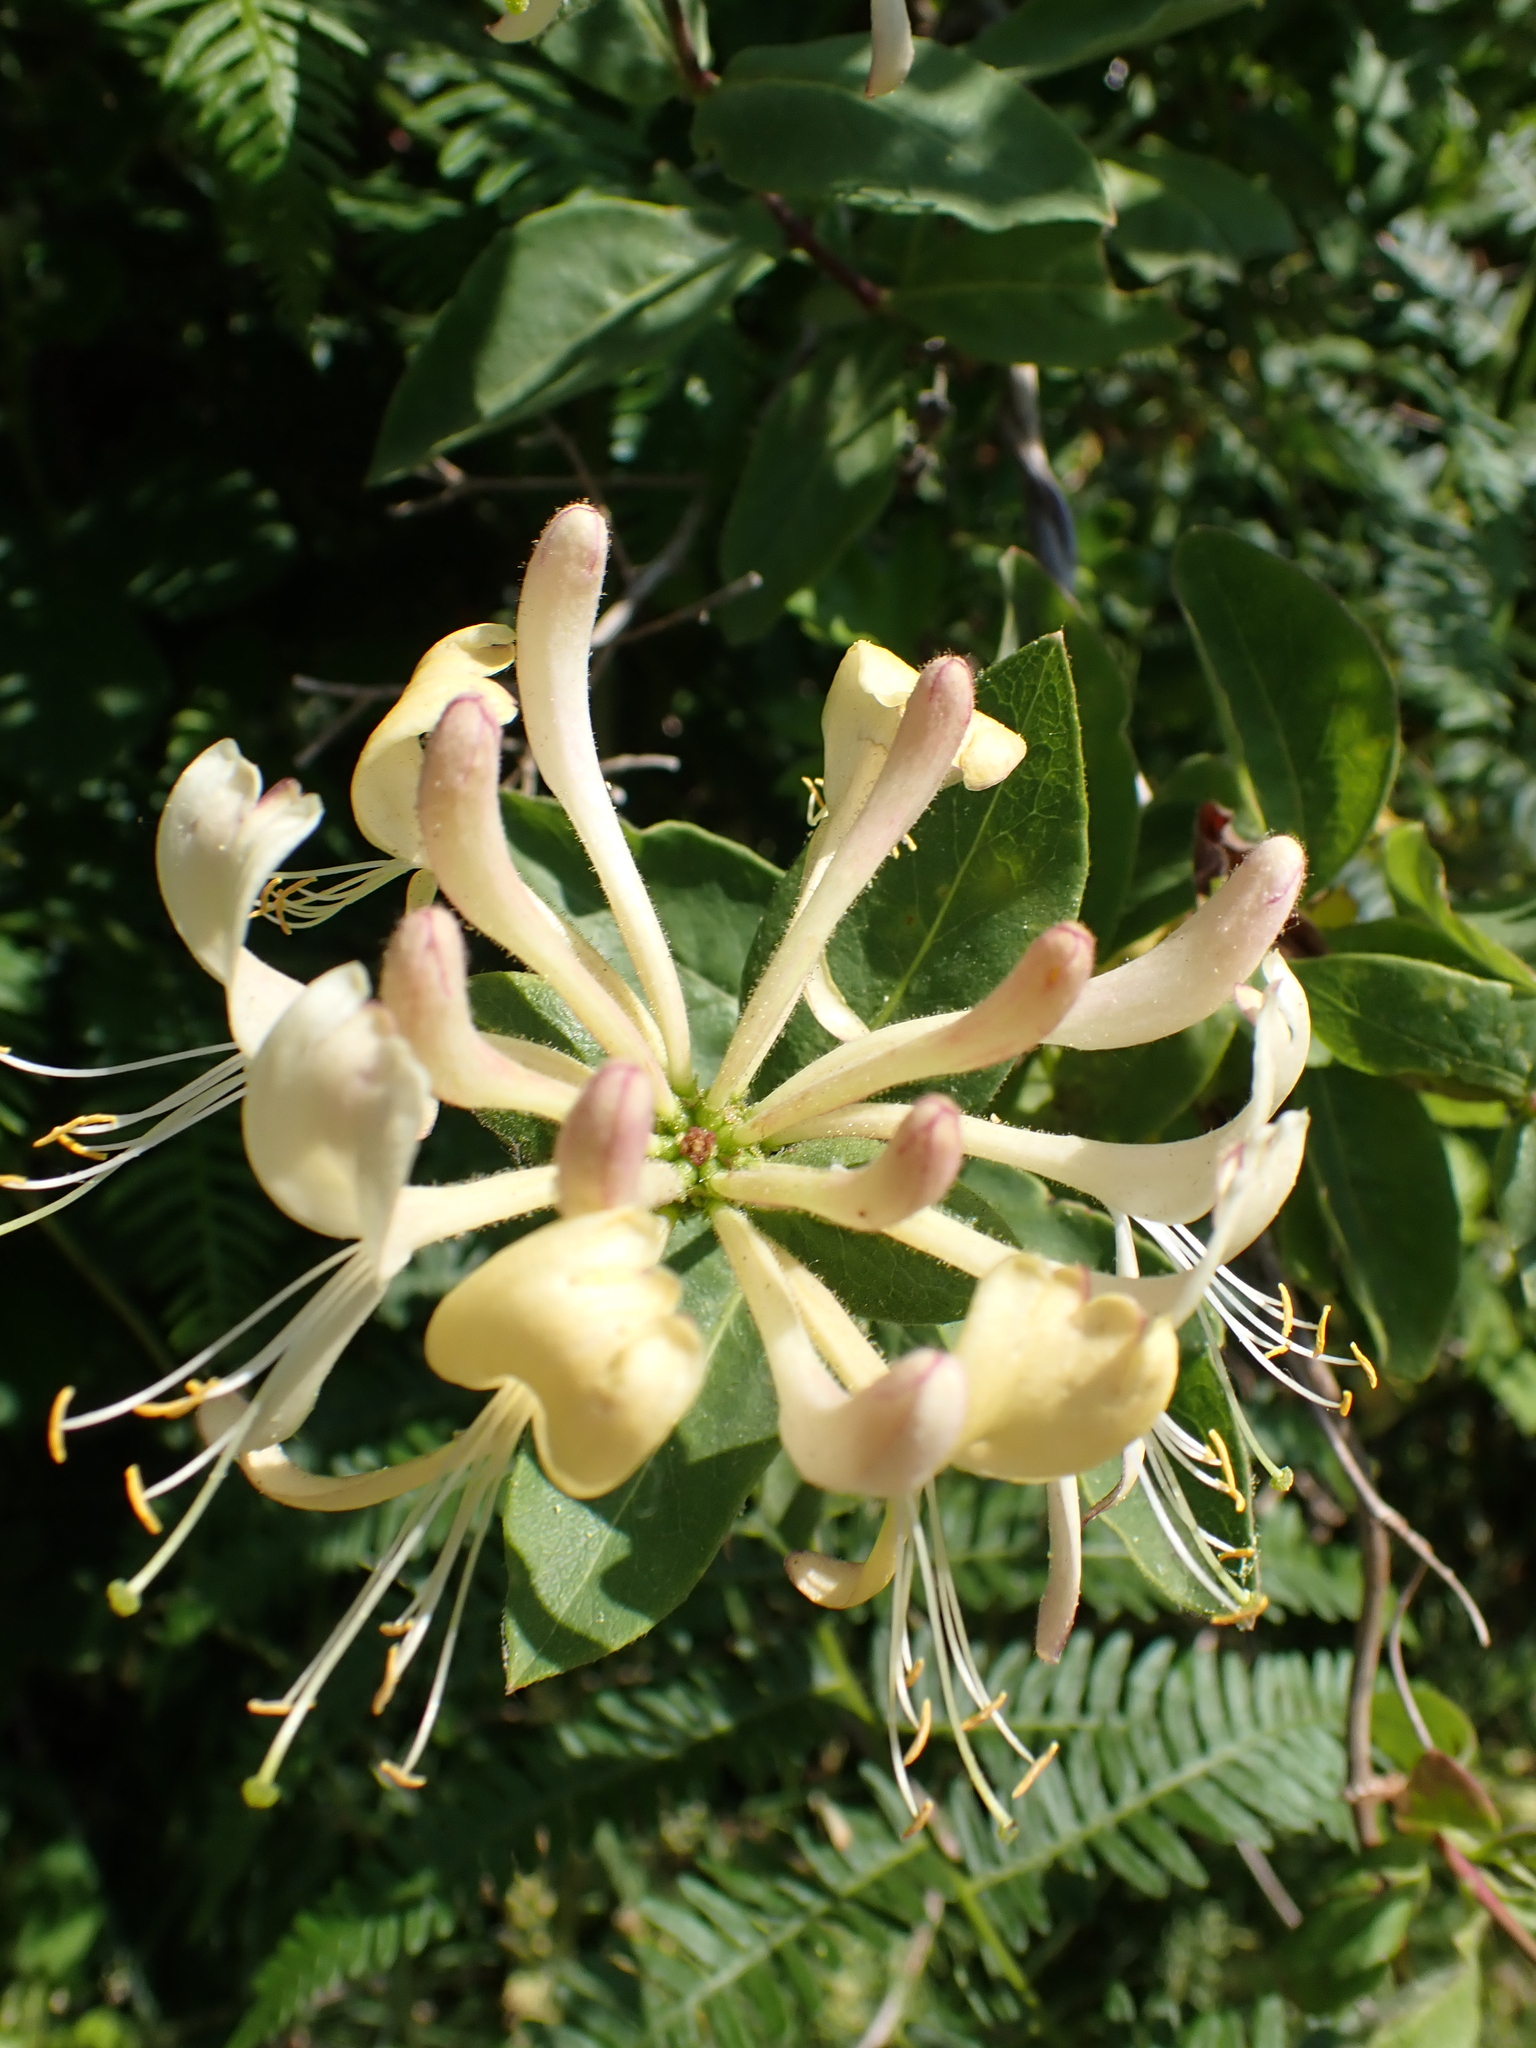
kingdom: Plantae
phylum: Tracheophyta
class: Magnoliopsida
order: Dipsacales
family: Caprifoliaceae
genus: Lonicera
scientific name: Lonicera periclymenum
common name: European honeysuckle
